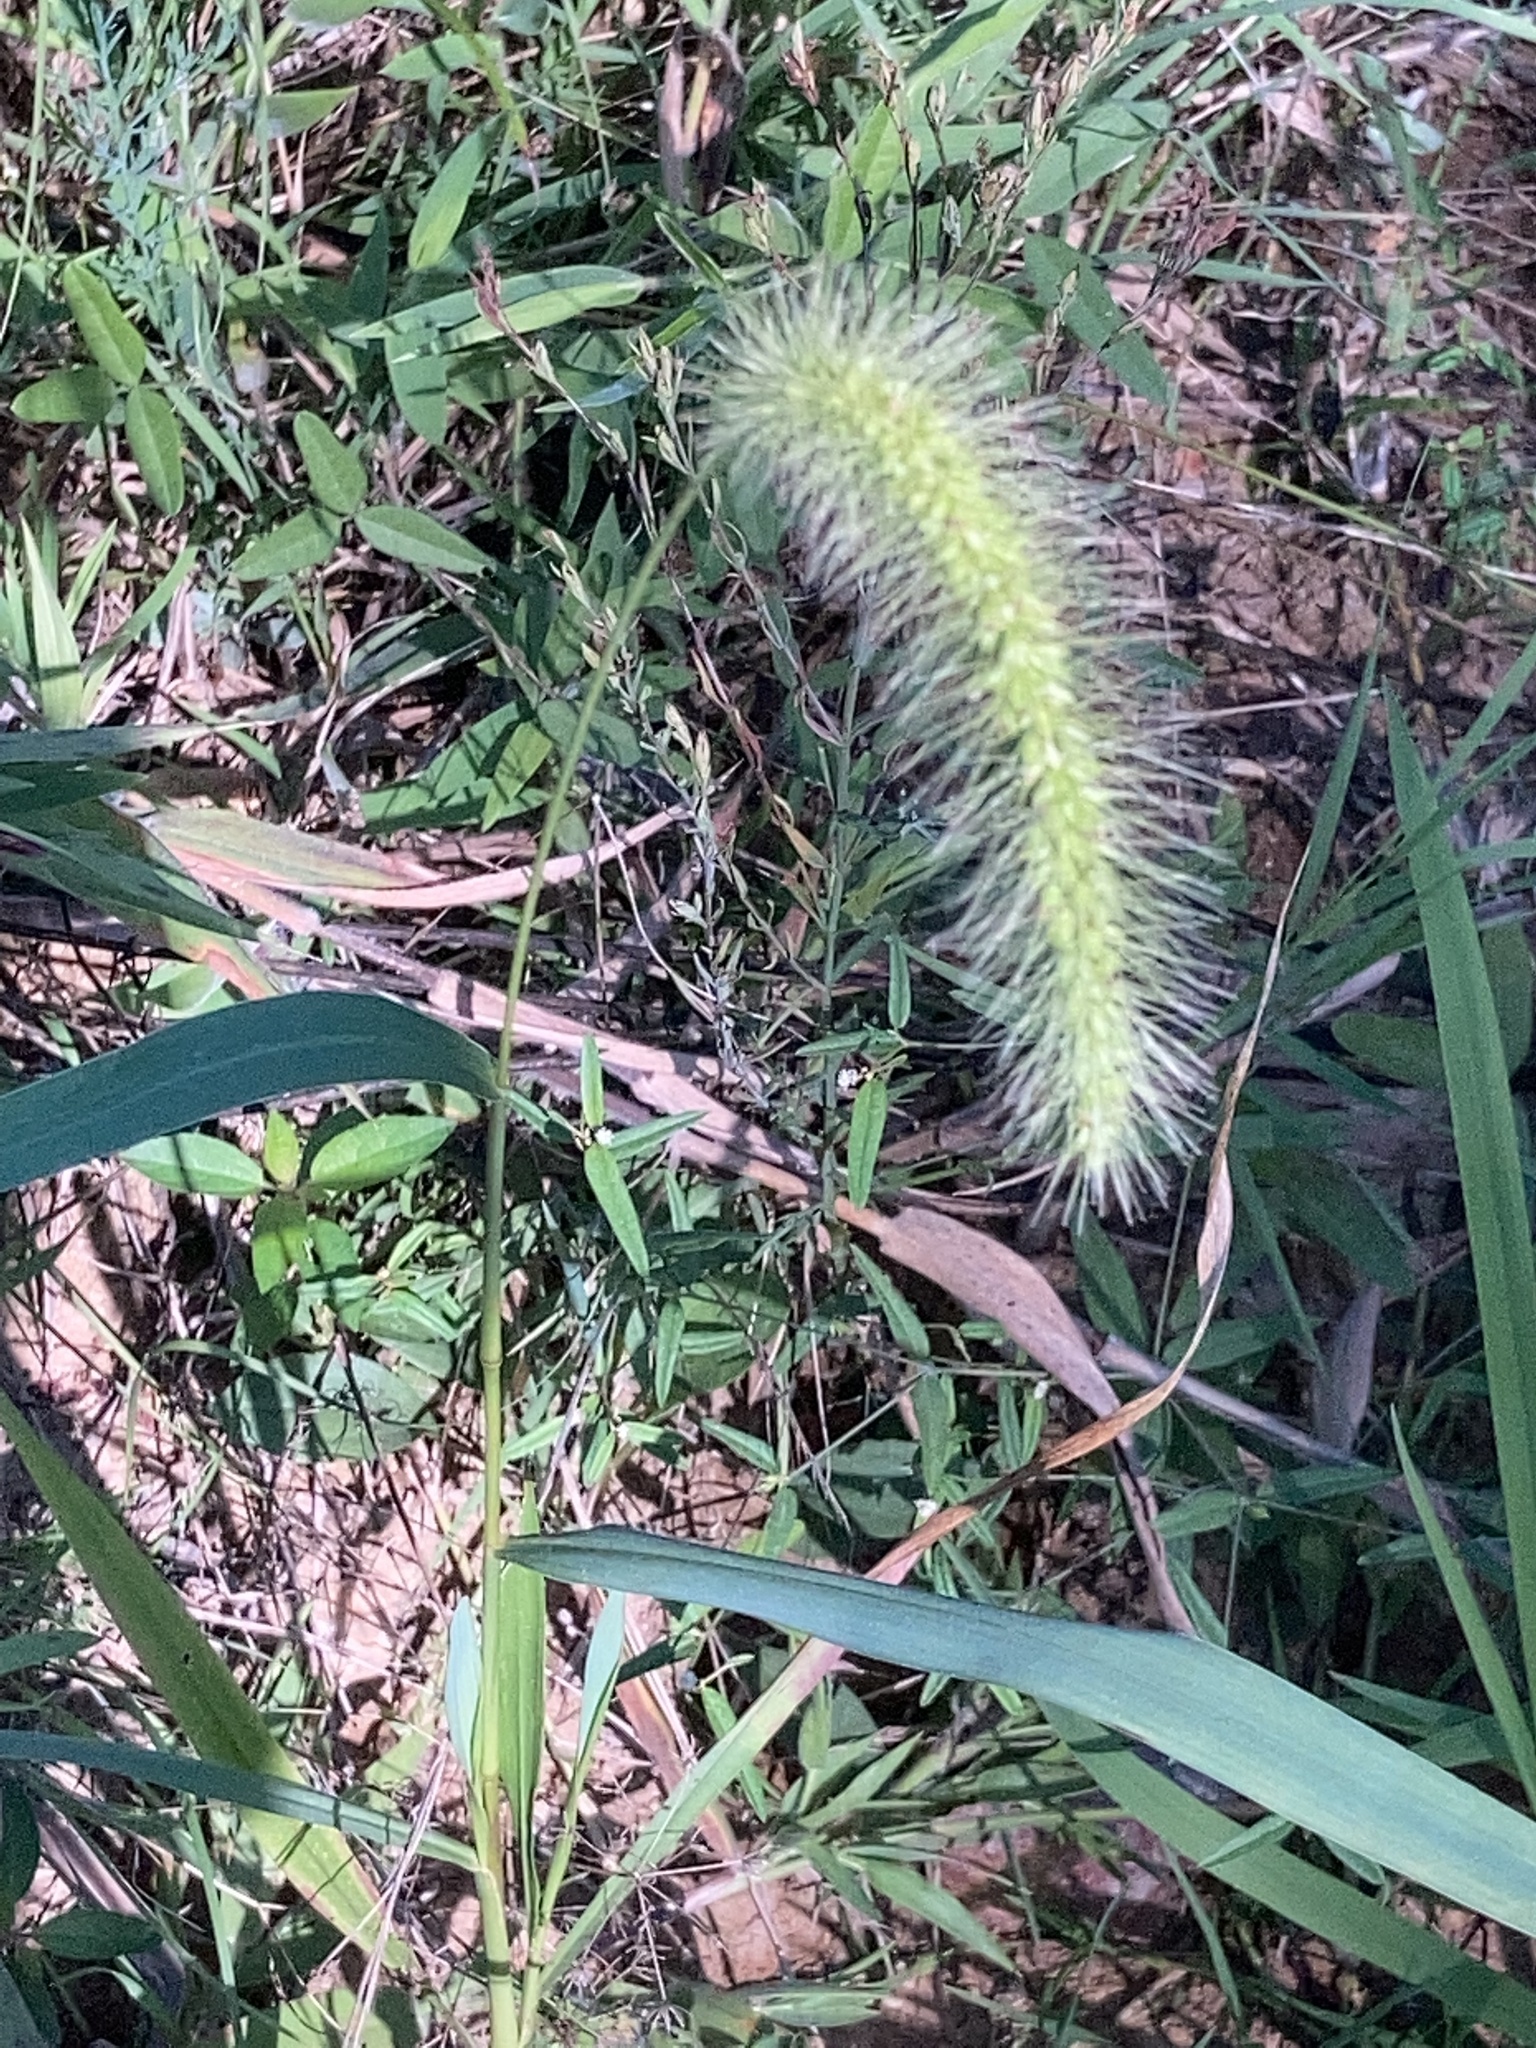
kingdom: Plantae
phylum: Tracheophyta
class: Liliopsida
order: Poales
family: Poaceae
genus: Setaria
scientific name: Setaria faberi
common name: Nodding bristle-grass
